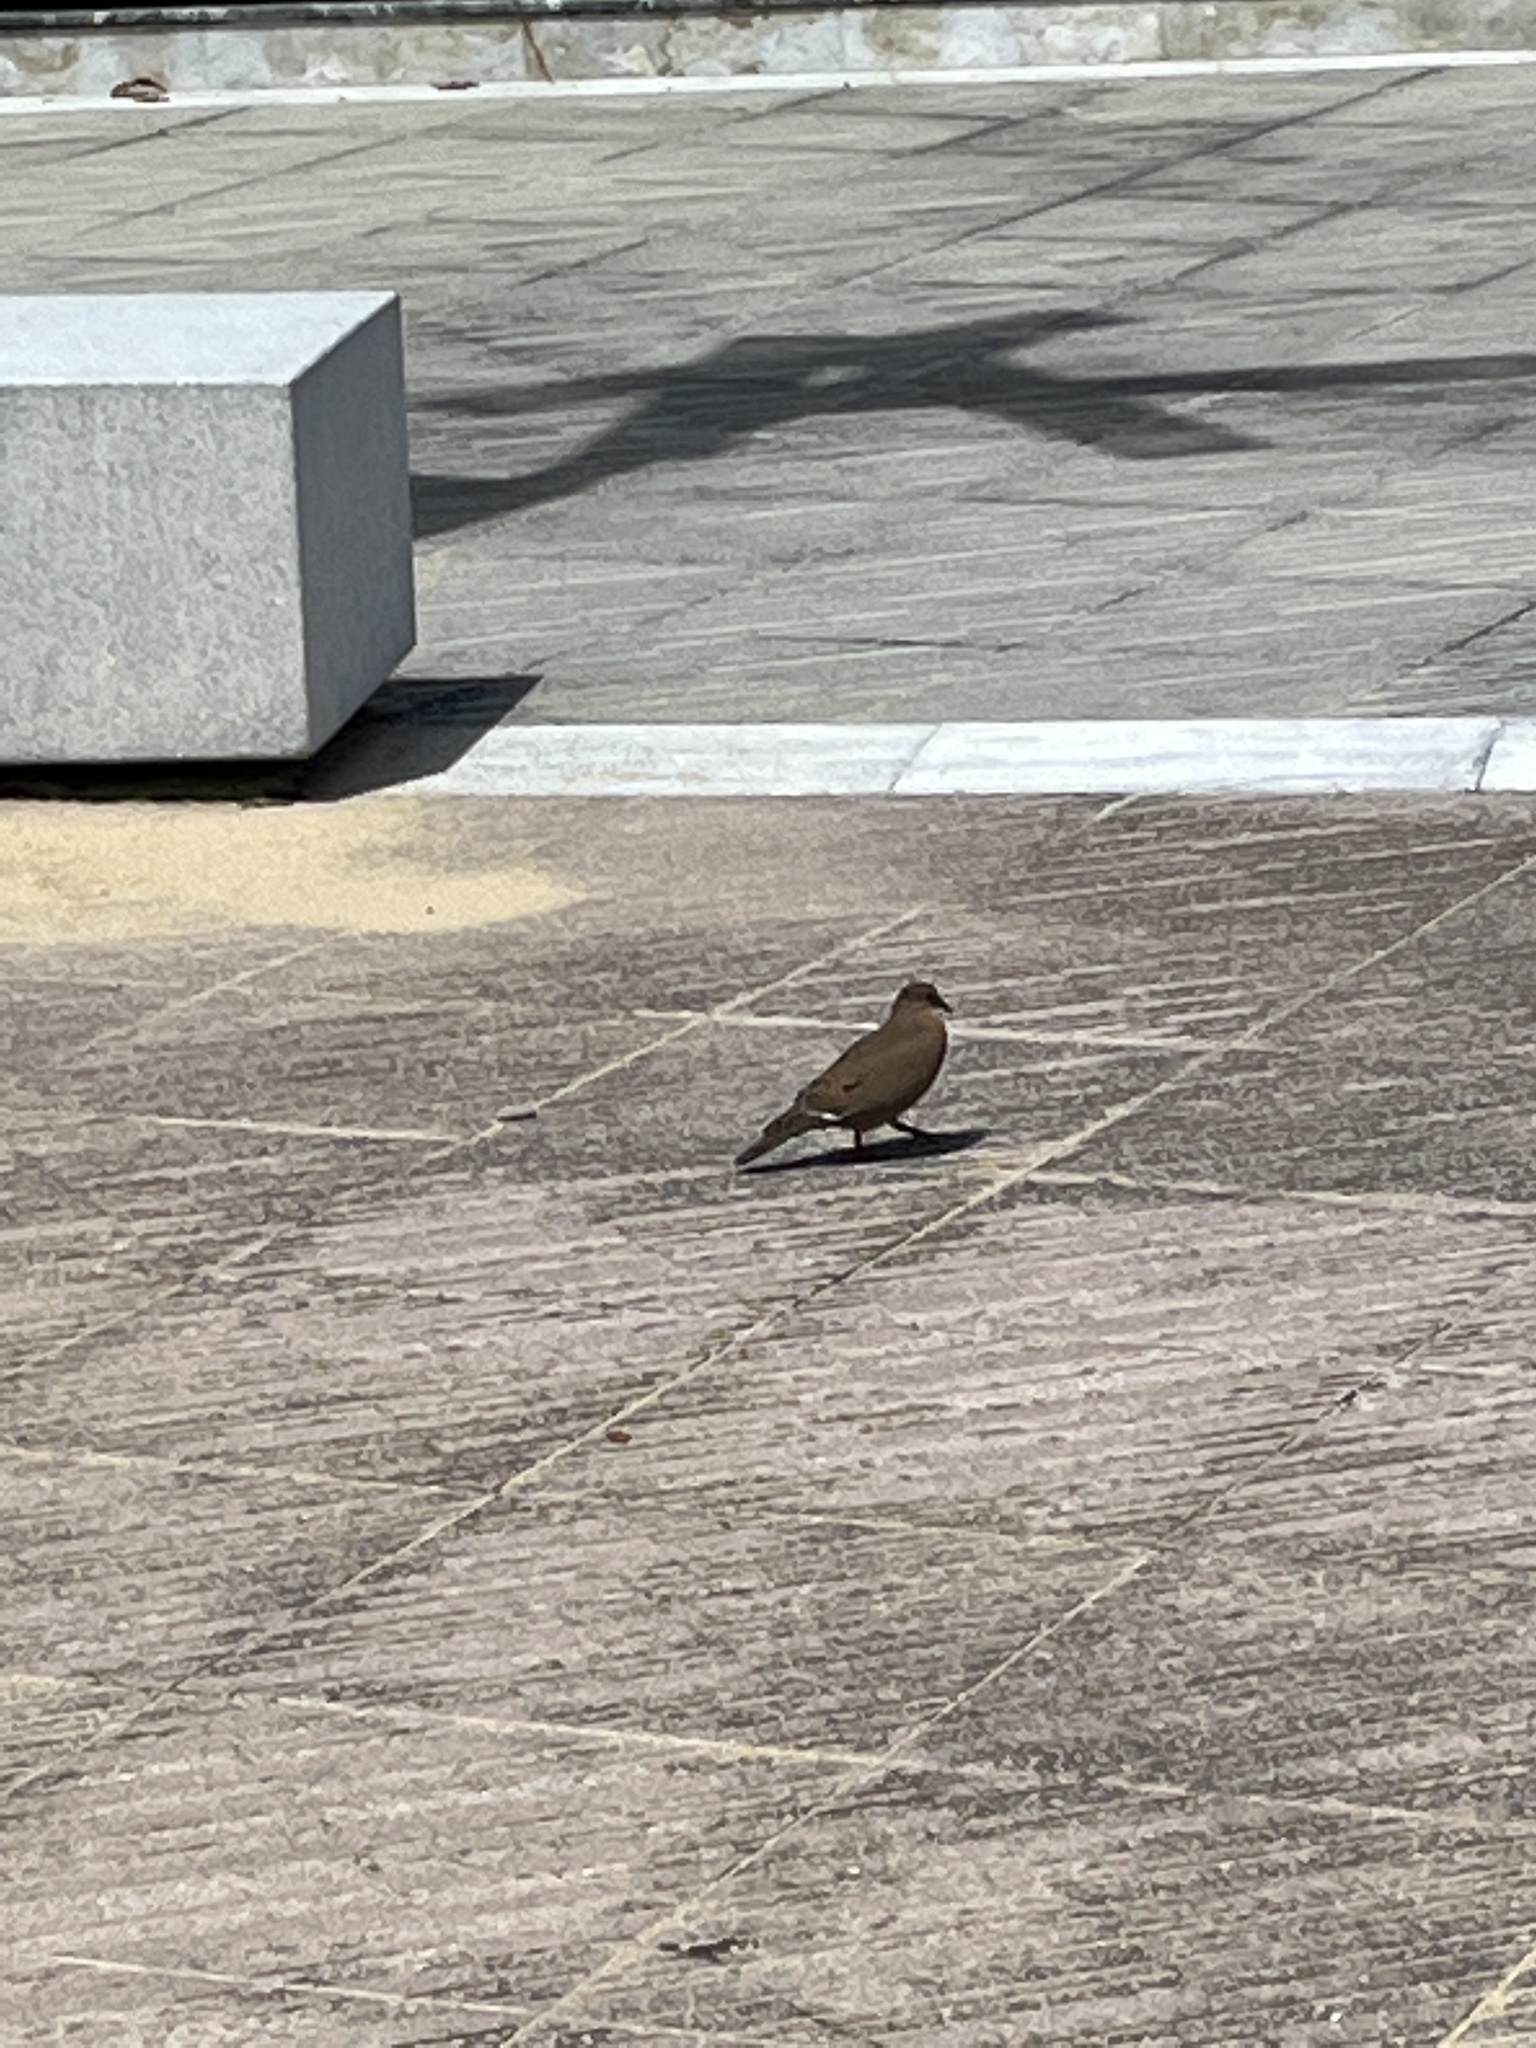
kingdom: Animalia
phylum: Chordata
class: Aves
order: Columbiformes
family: Columbidae
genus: Zenaida
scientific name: Zenaida aurita
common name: Zenaida dove
